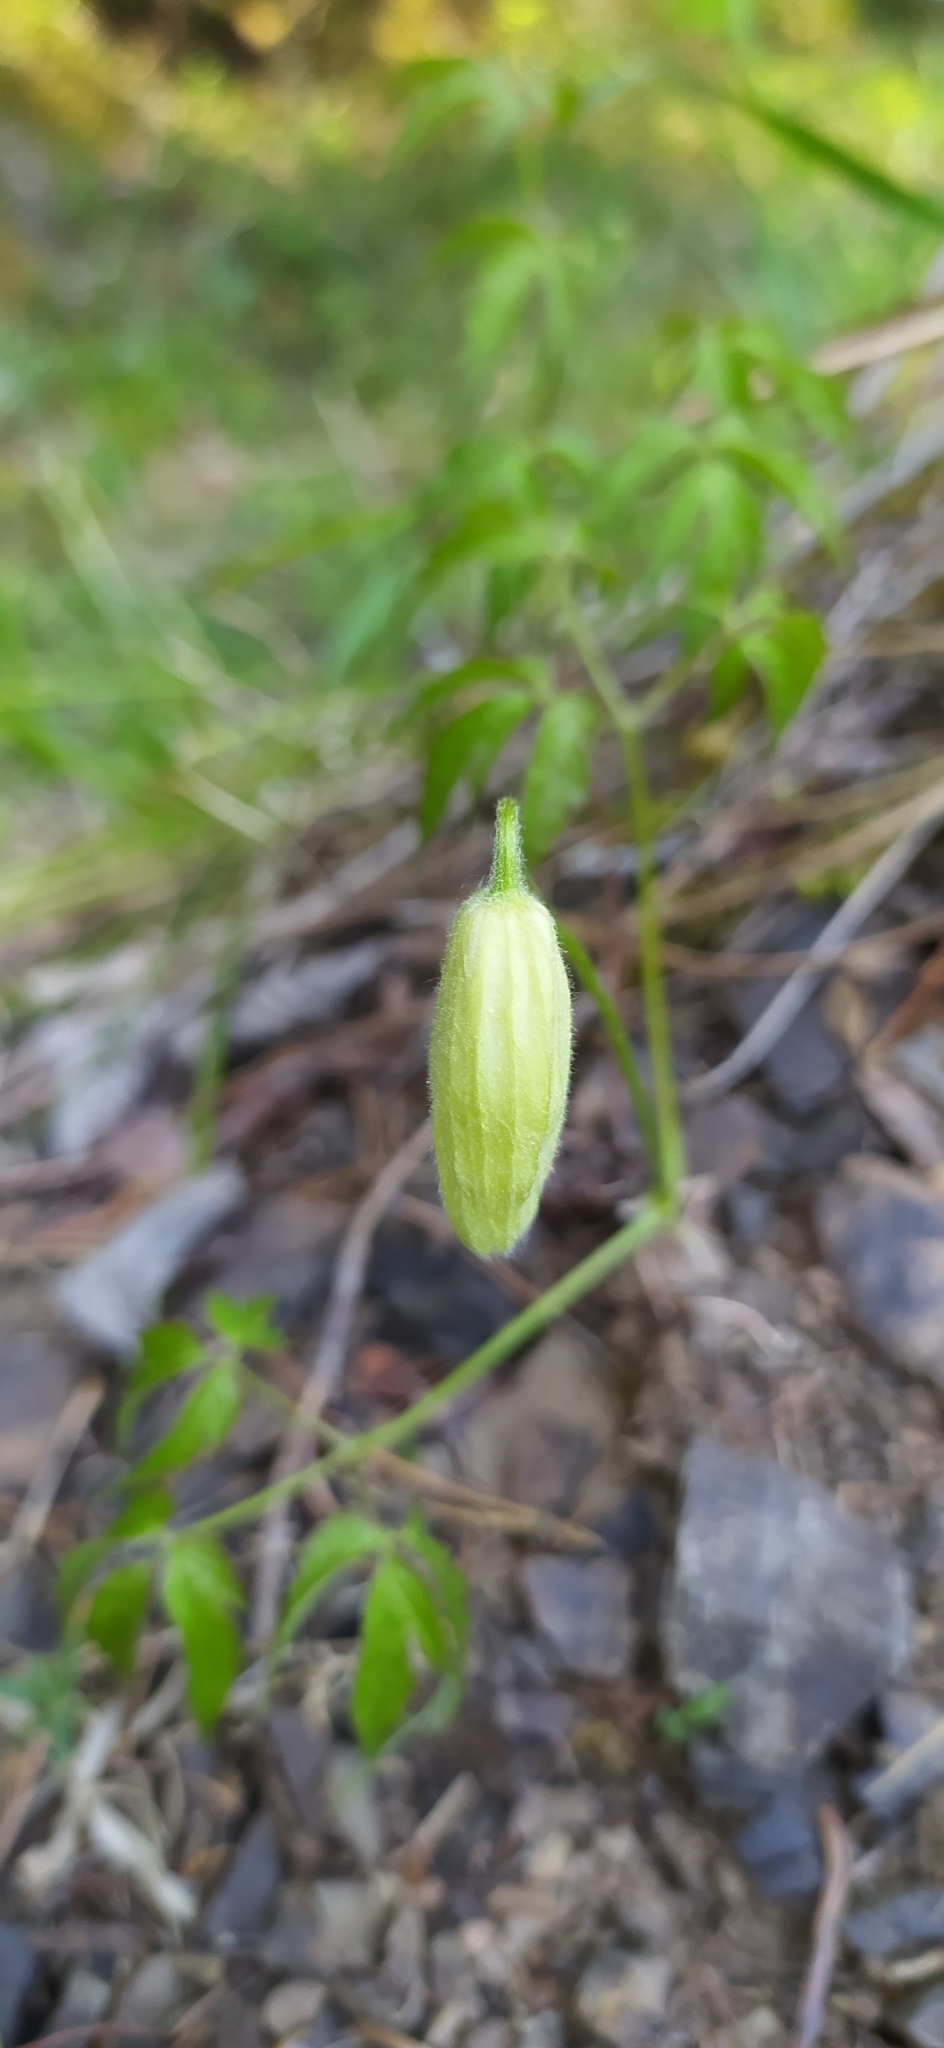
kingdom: Plantae
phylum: Tracheophyta
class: Magnoliopsida
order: Ranunculales
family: Ranunculaceae
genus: Clematis
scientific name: Clematis sibirica
